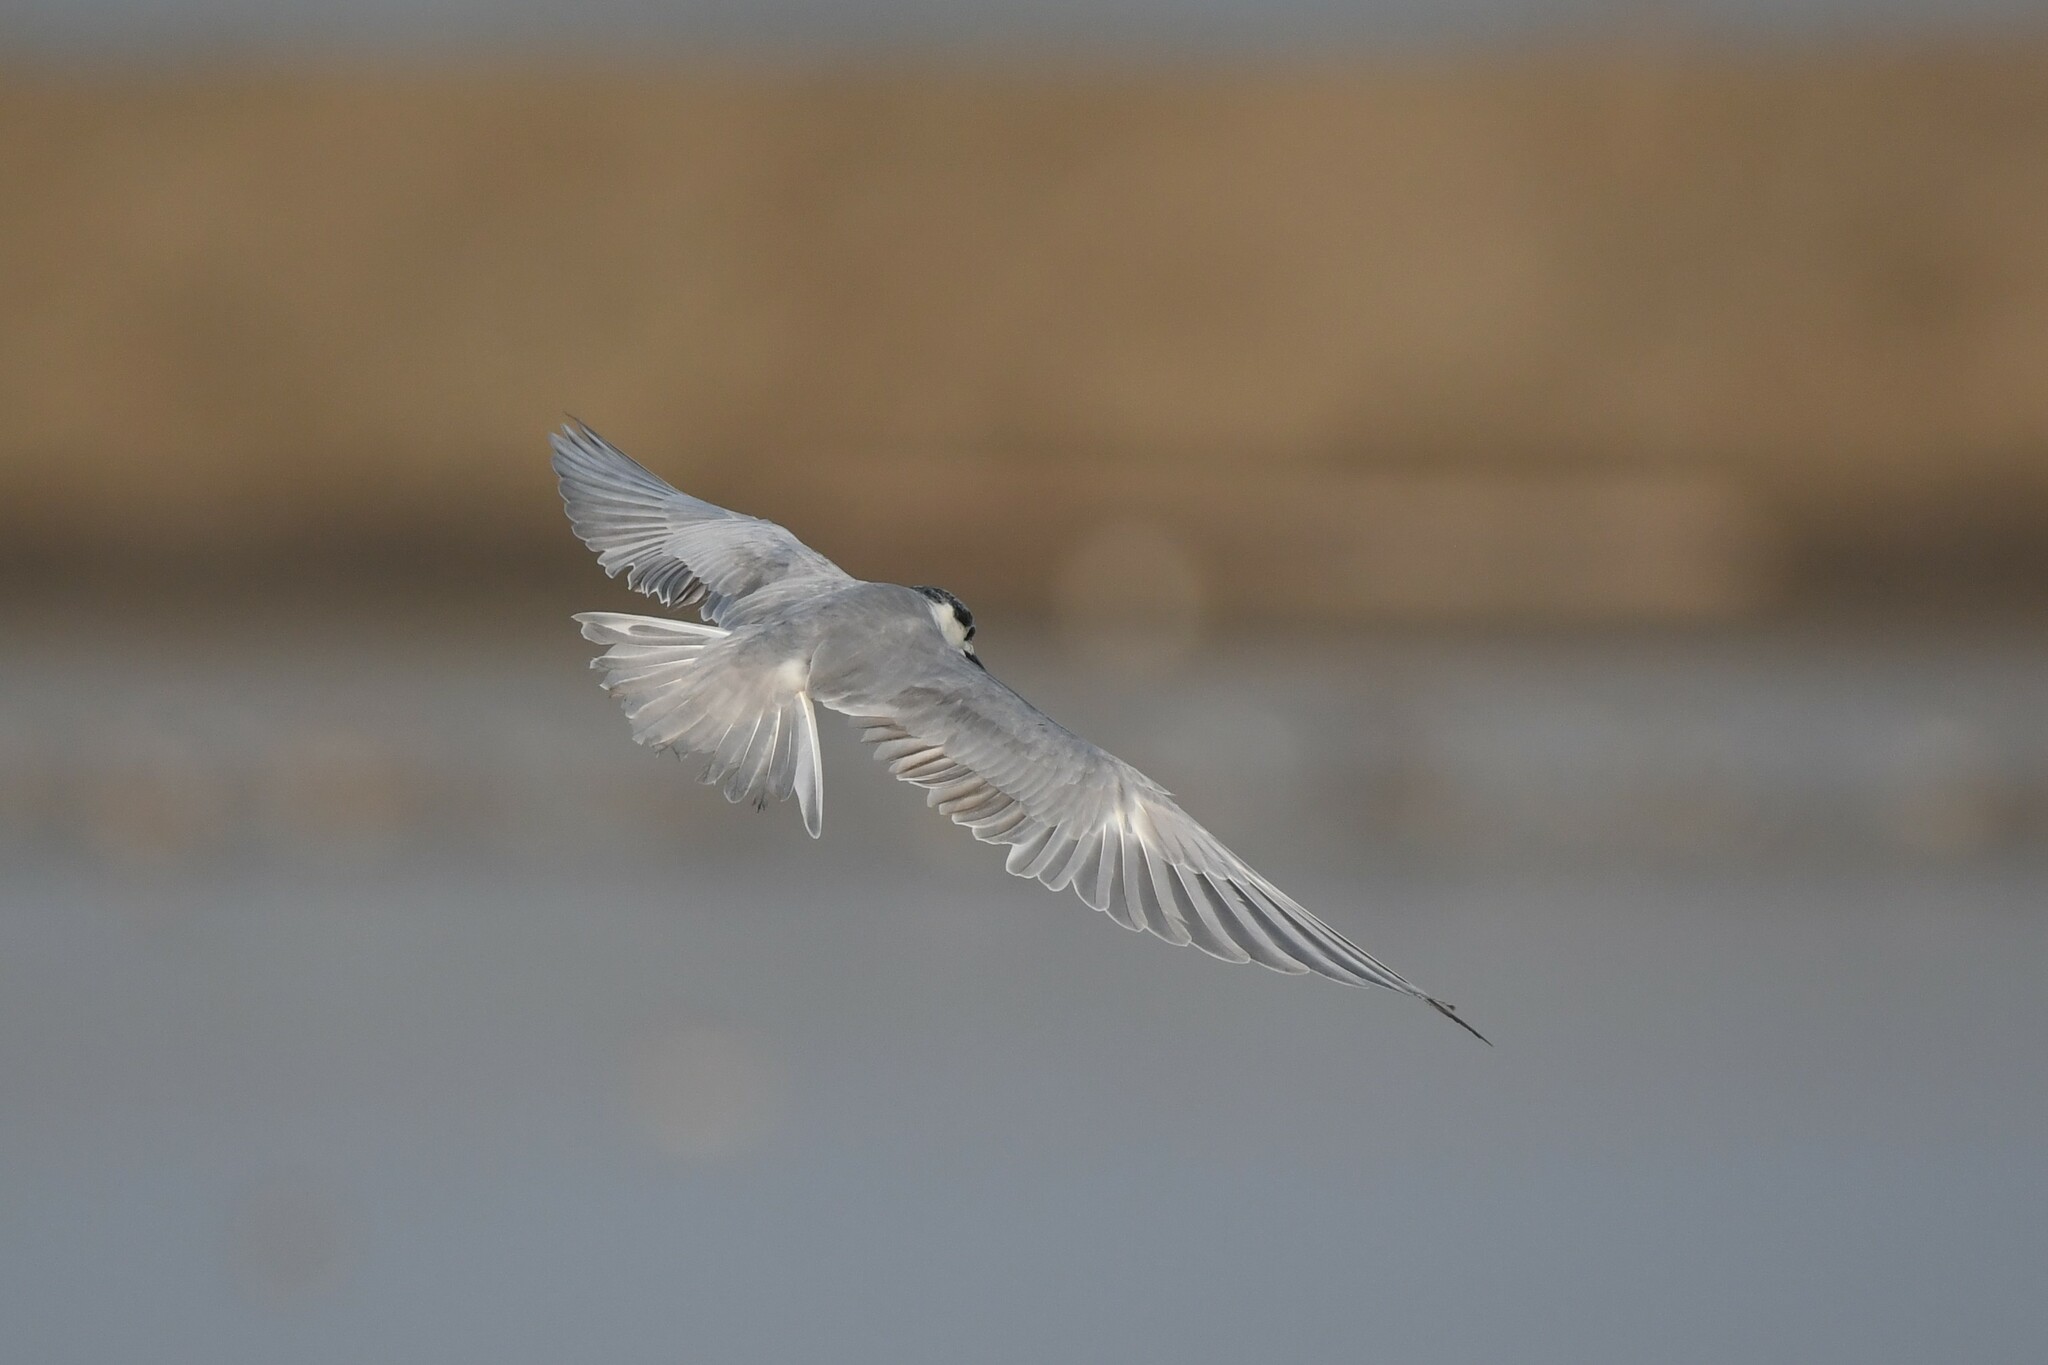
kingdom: Animalia
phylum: Chordata
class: Aves
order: Charadriiformes
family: Laridae
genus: Chlidonias
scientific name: Chlidonias hybrida
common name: Whiskered tern
